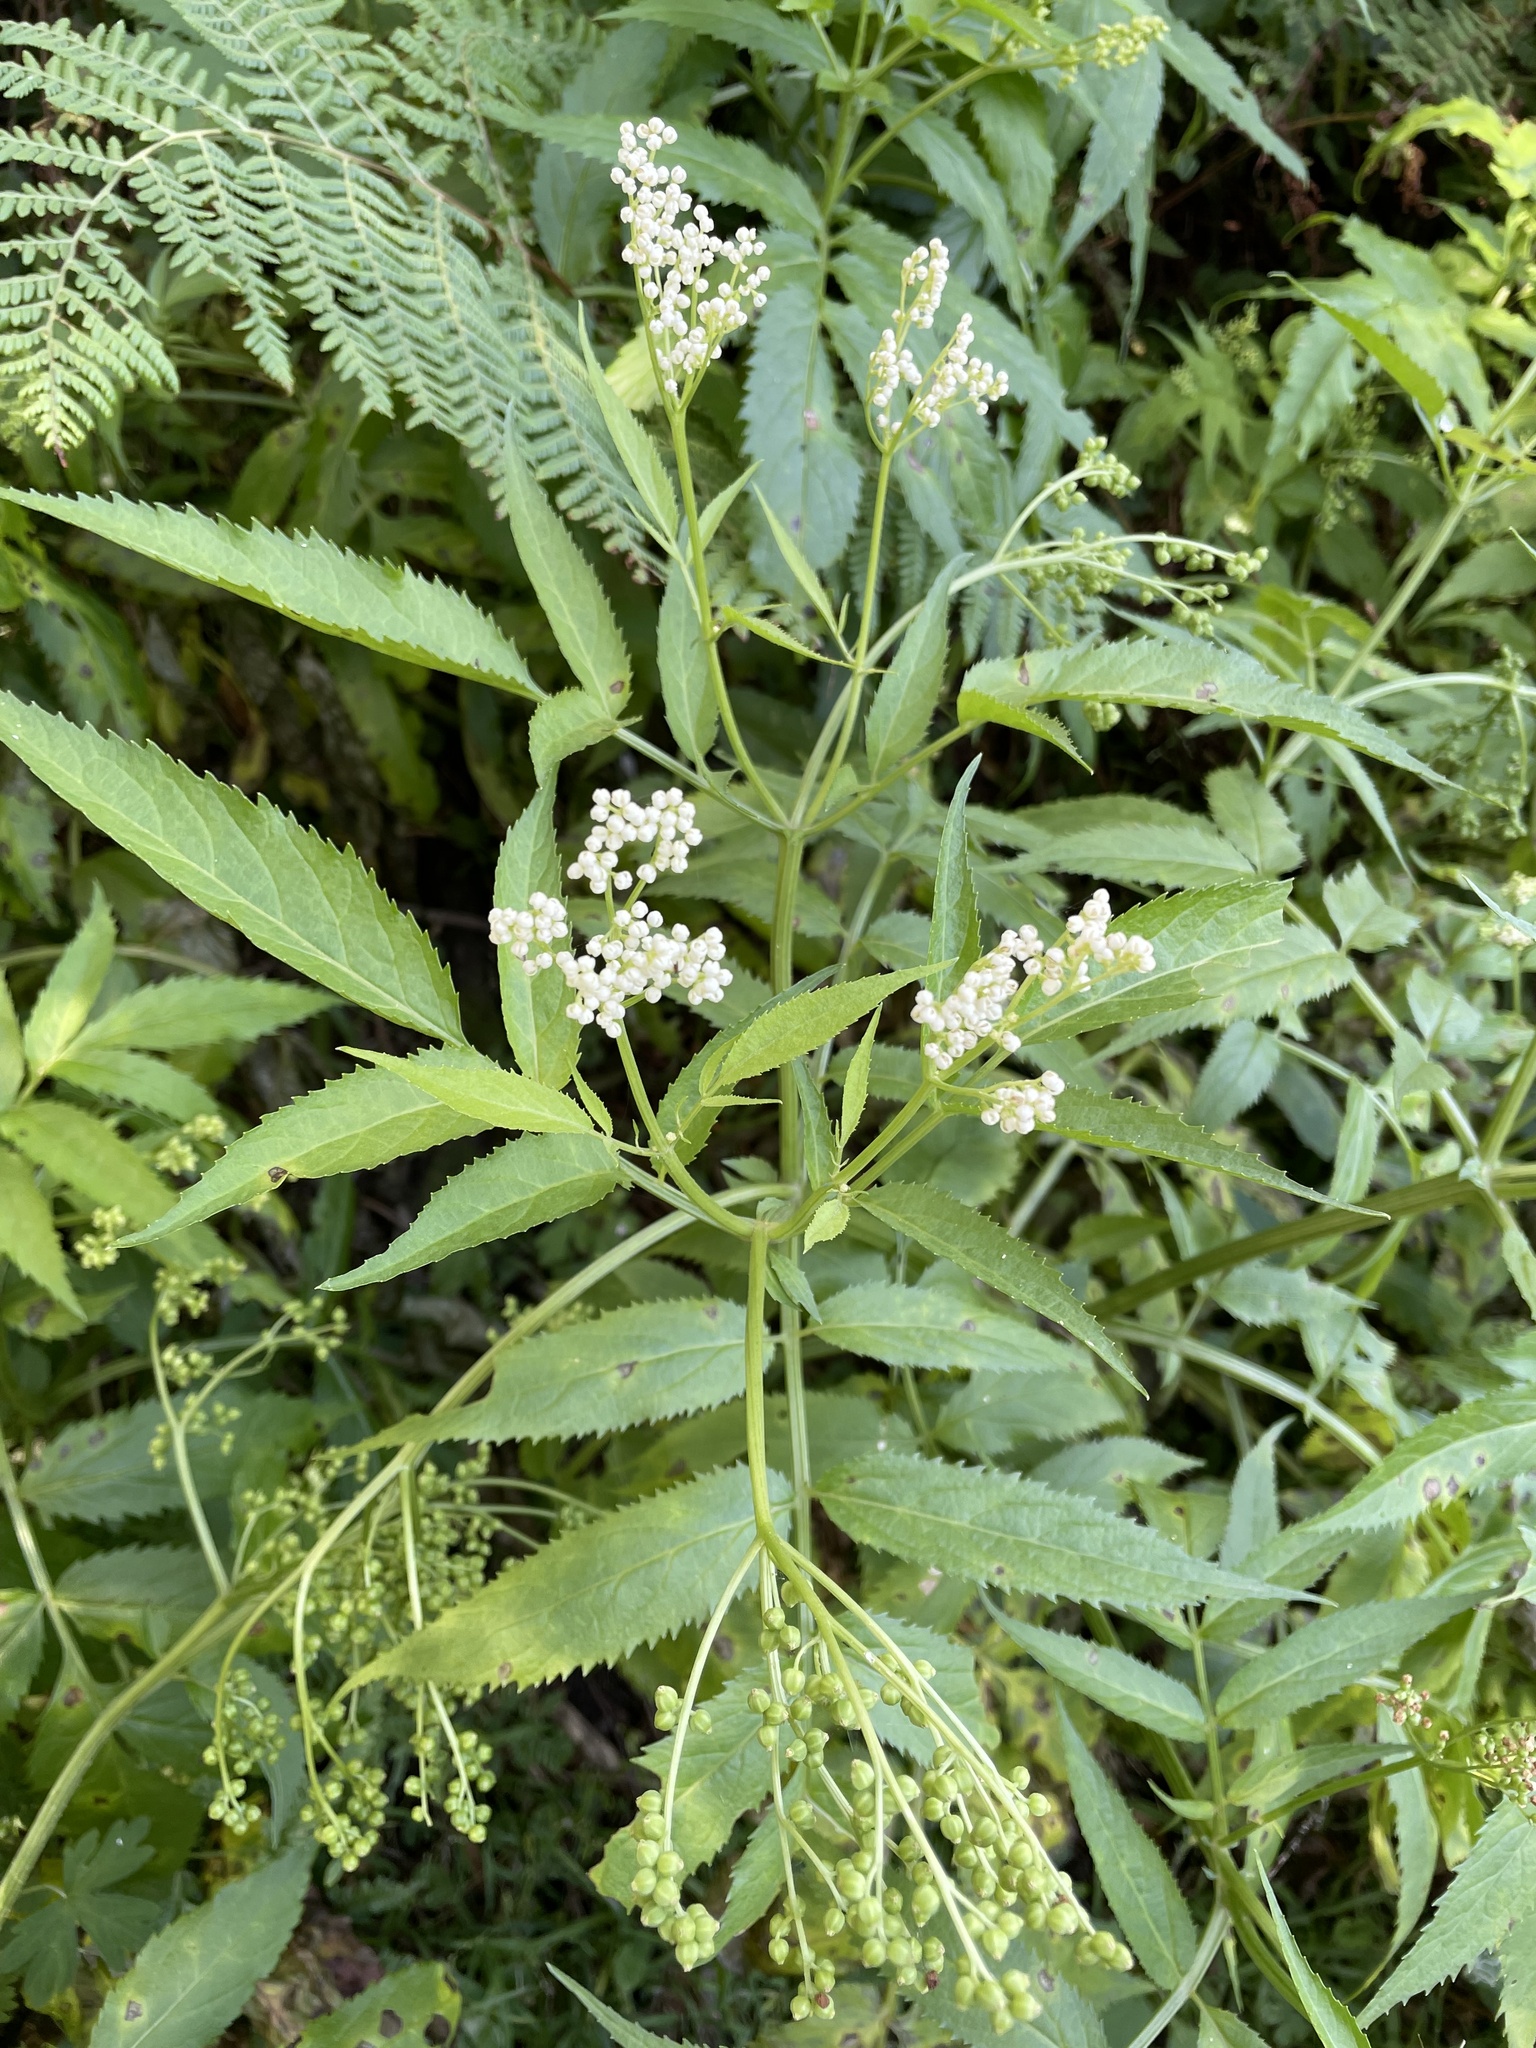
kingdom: Plantae
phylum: Tracheophyta
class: Magnoliopsida
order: Dipsacales
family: Viburnaceae
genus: Sambucus
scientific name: Sambucus gaudichaudiana
